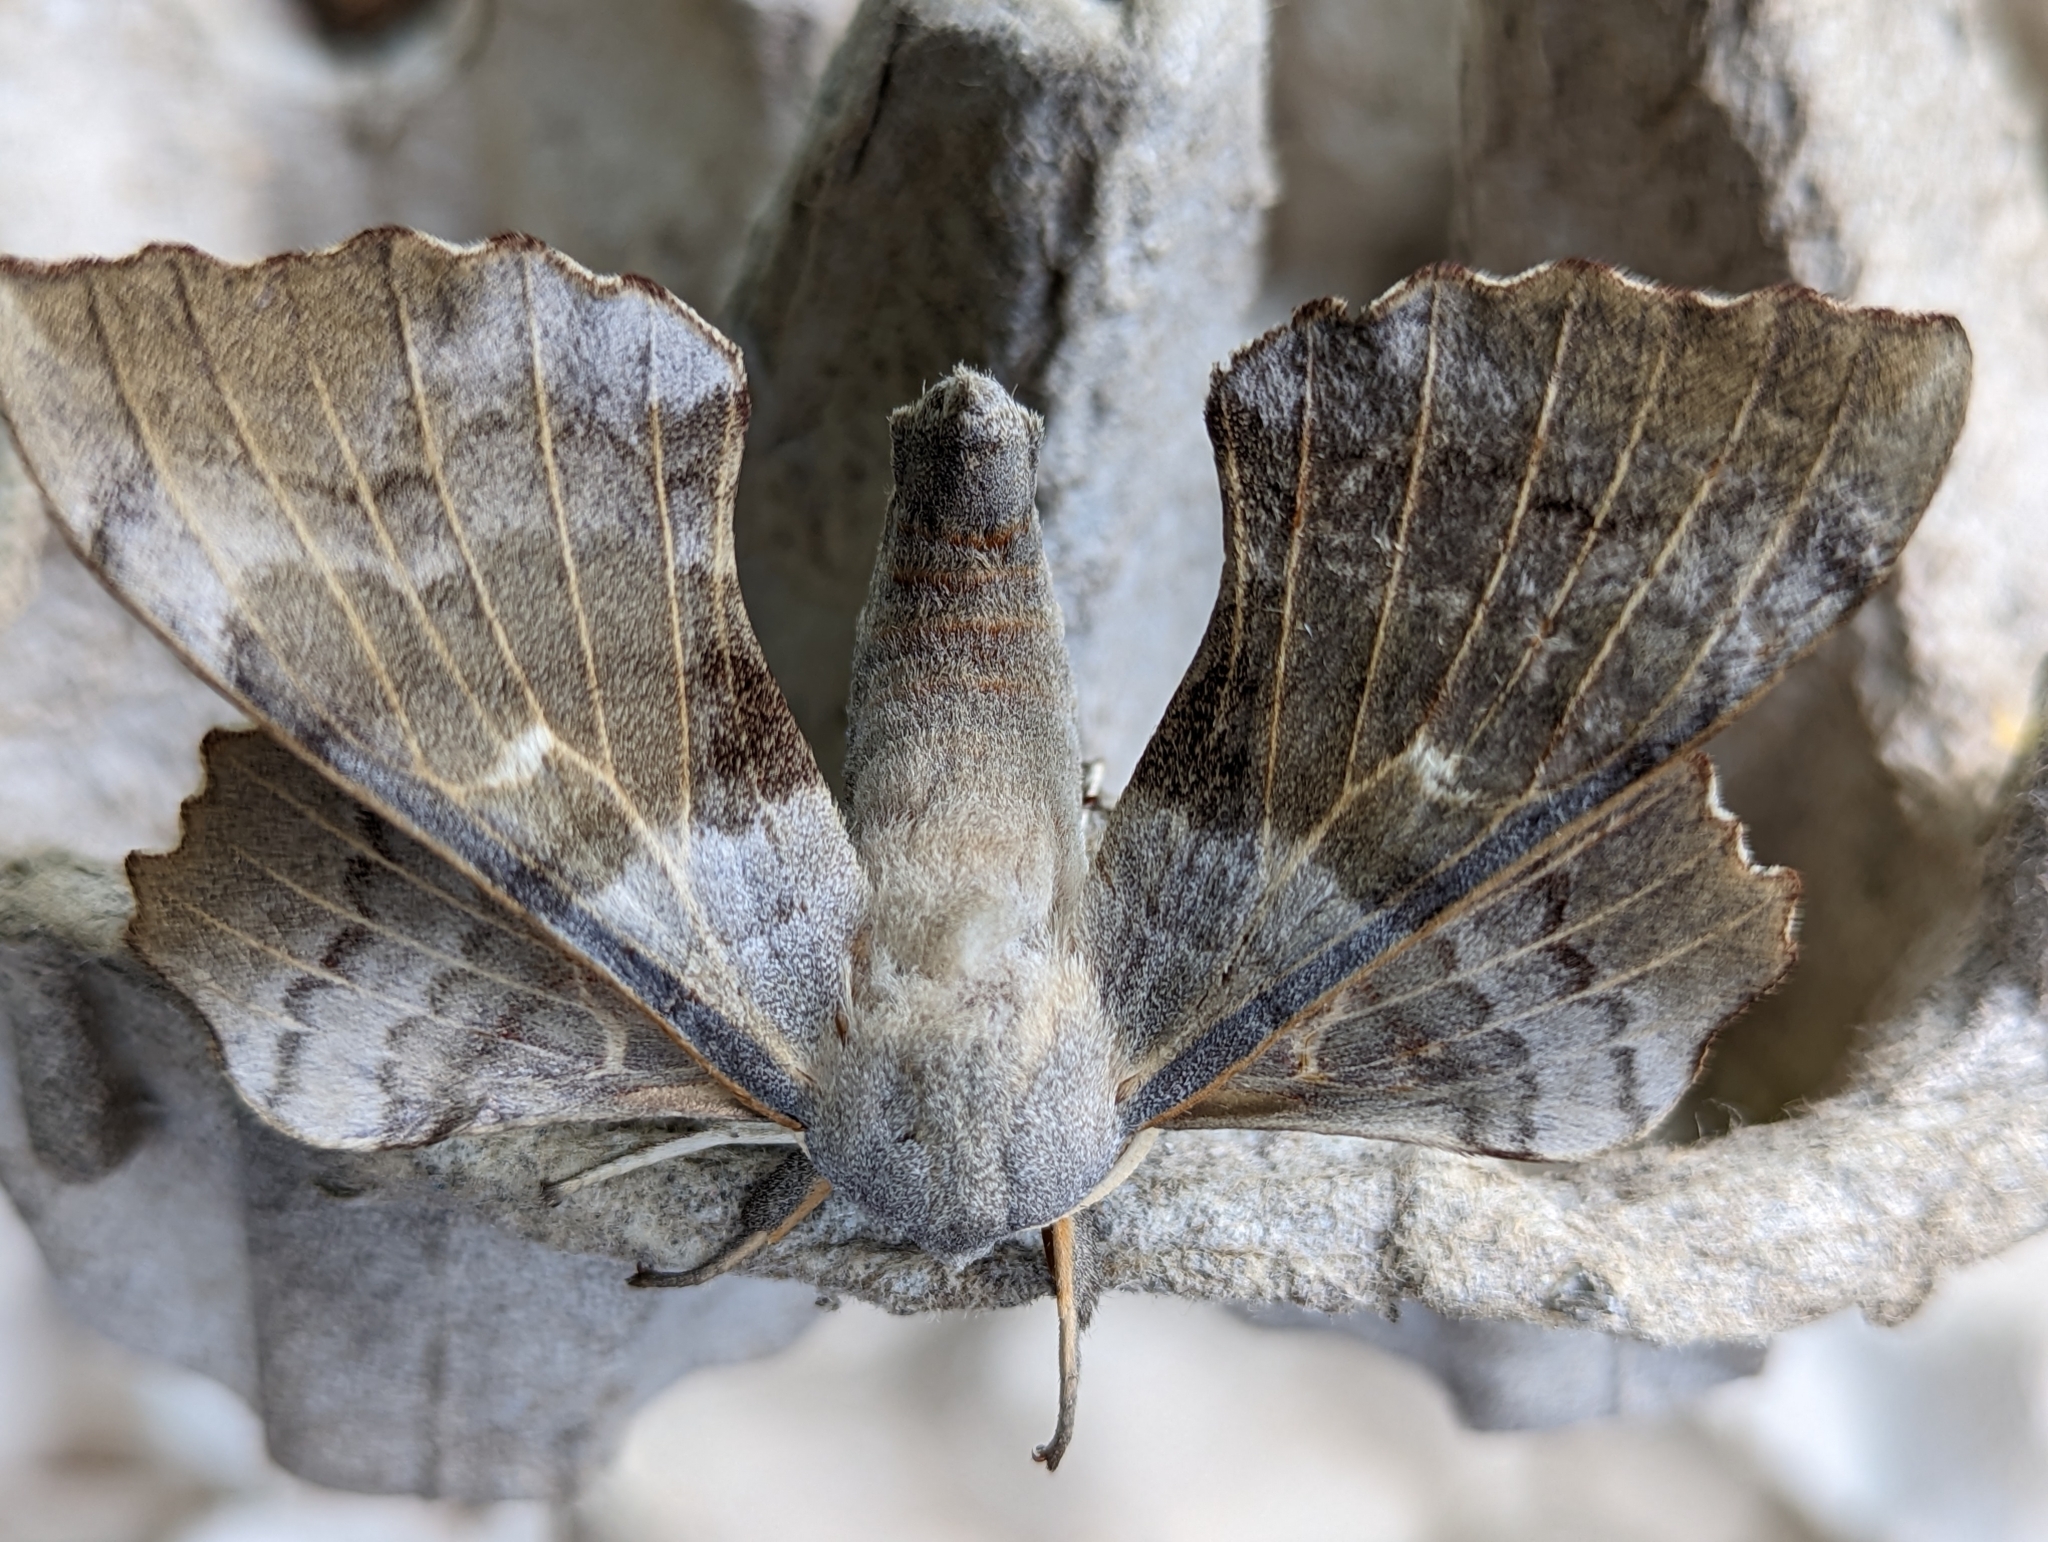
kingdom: Animalia
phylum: Arthropoda
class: Insecta
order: Lepidoptera
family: Sphingidae
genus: Laothoe
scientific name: Laothoe populi
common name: Poplar hawk-moth
